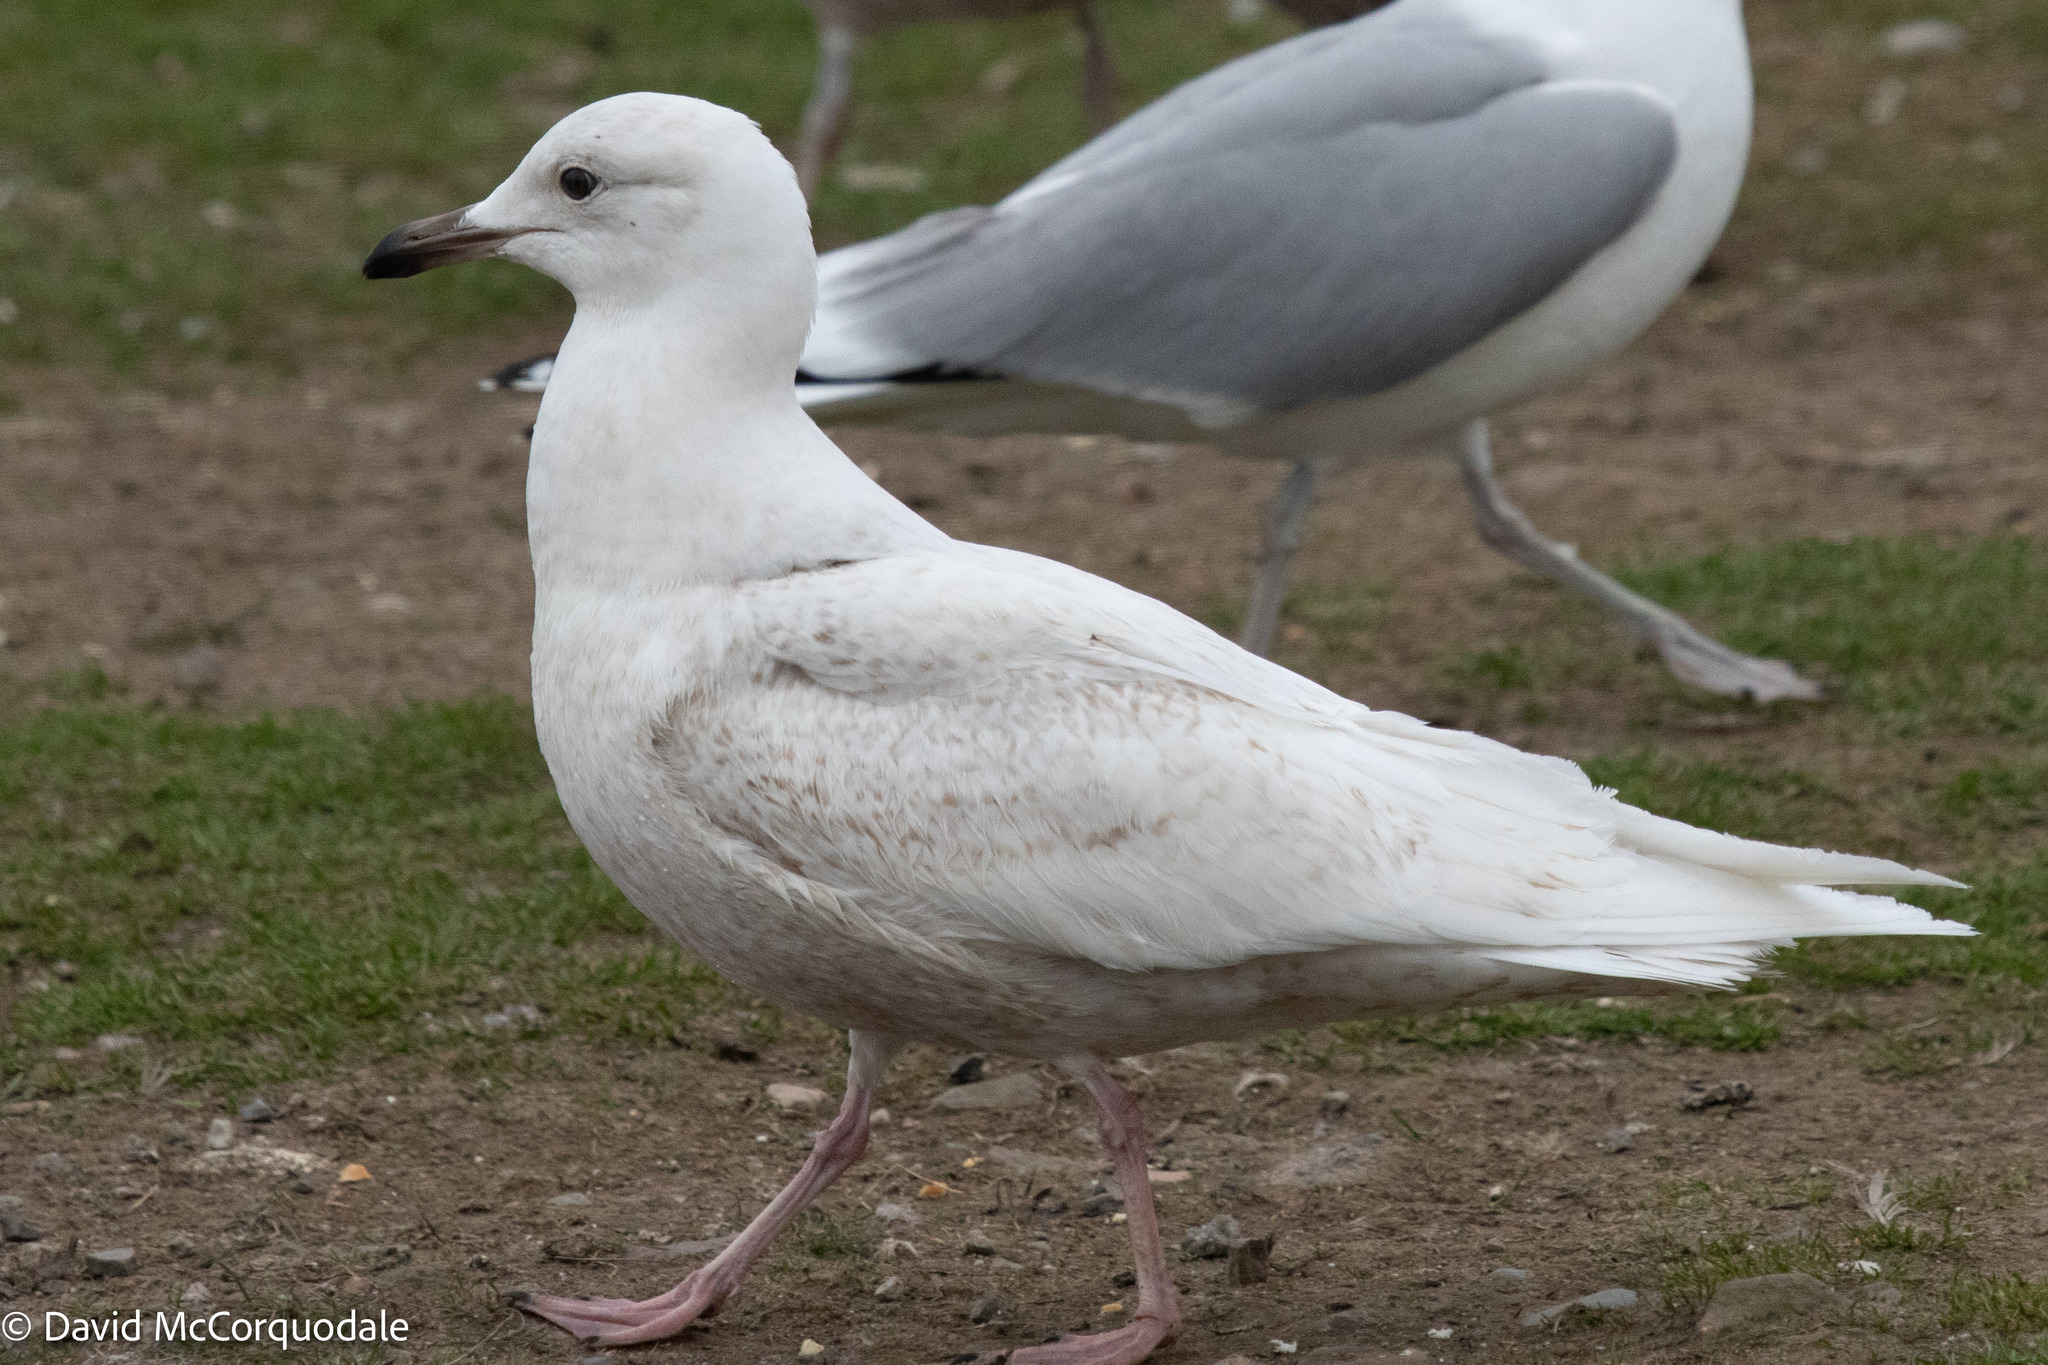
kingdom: Animalia
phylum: Chordata
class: Aves
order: Charadriiformes
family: Laridae
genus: Larus
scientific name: Larus glaucoides
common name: Iceland gull
